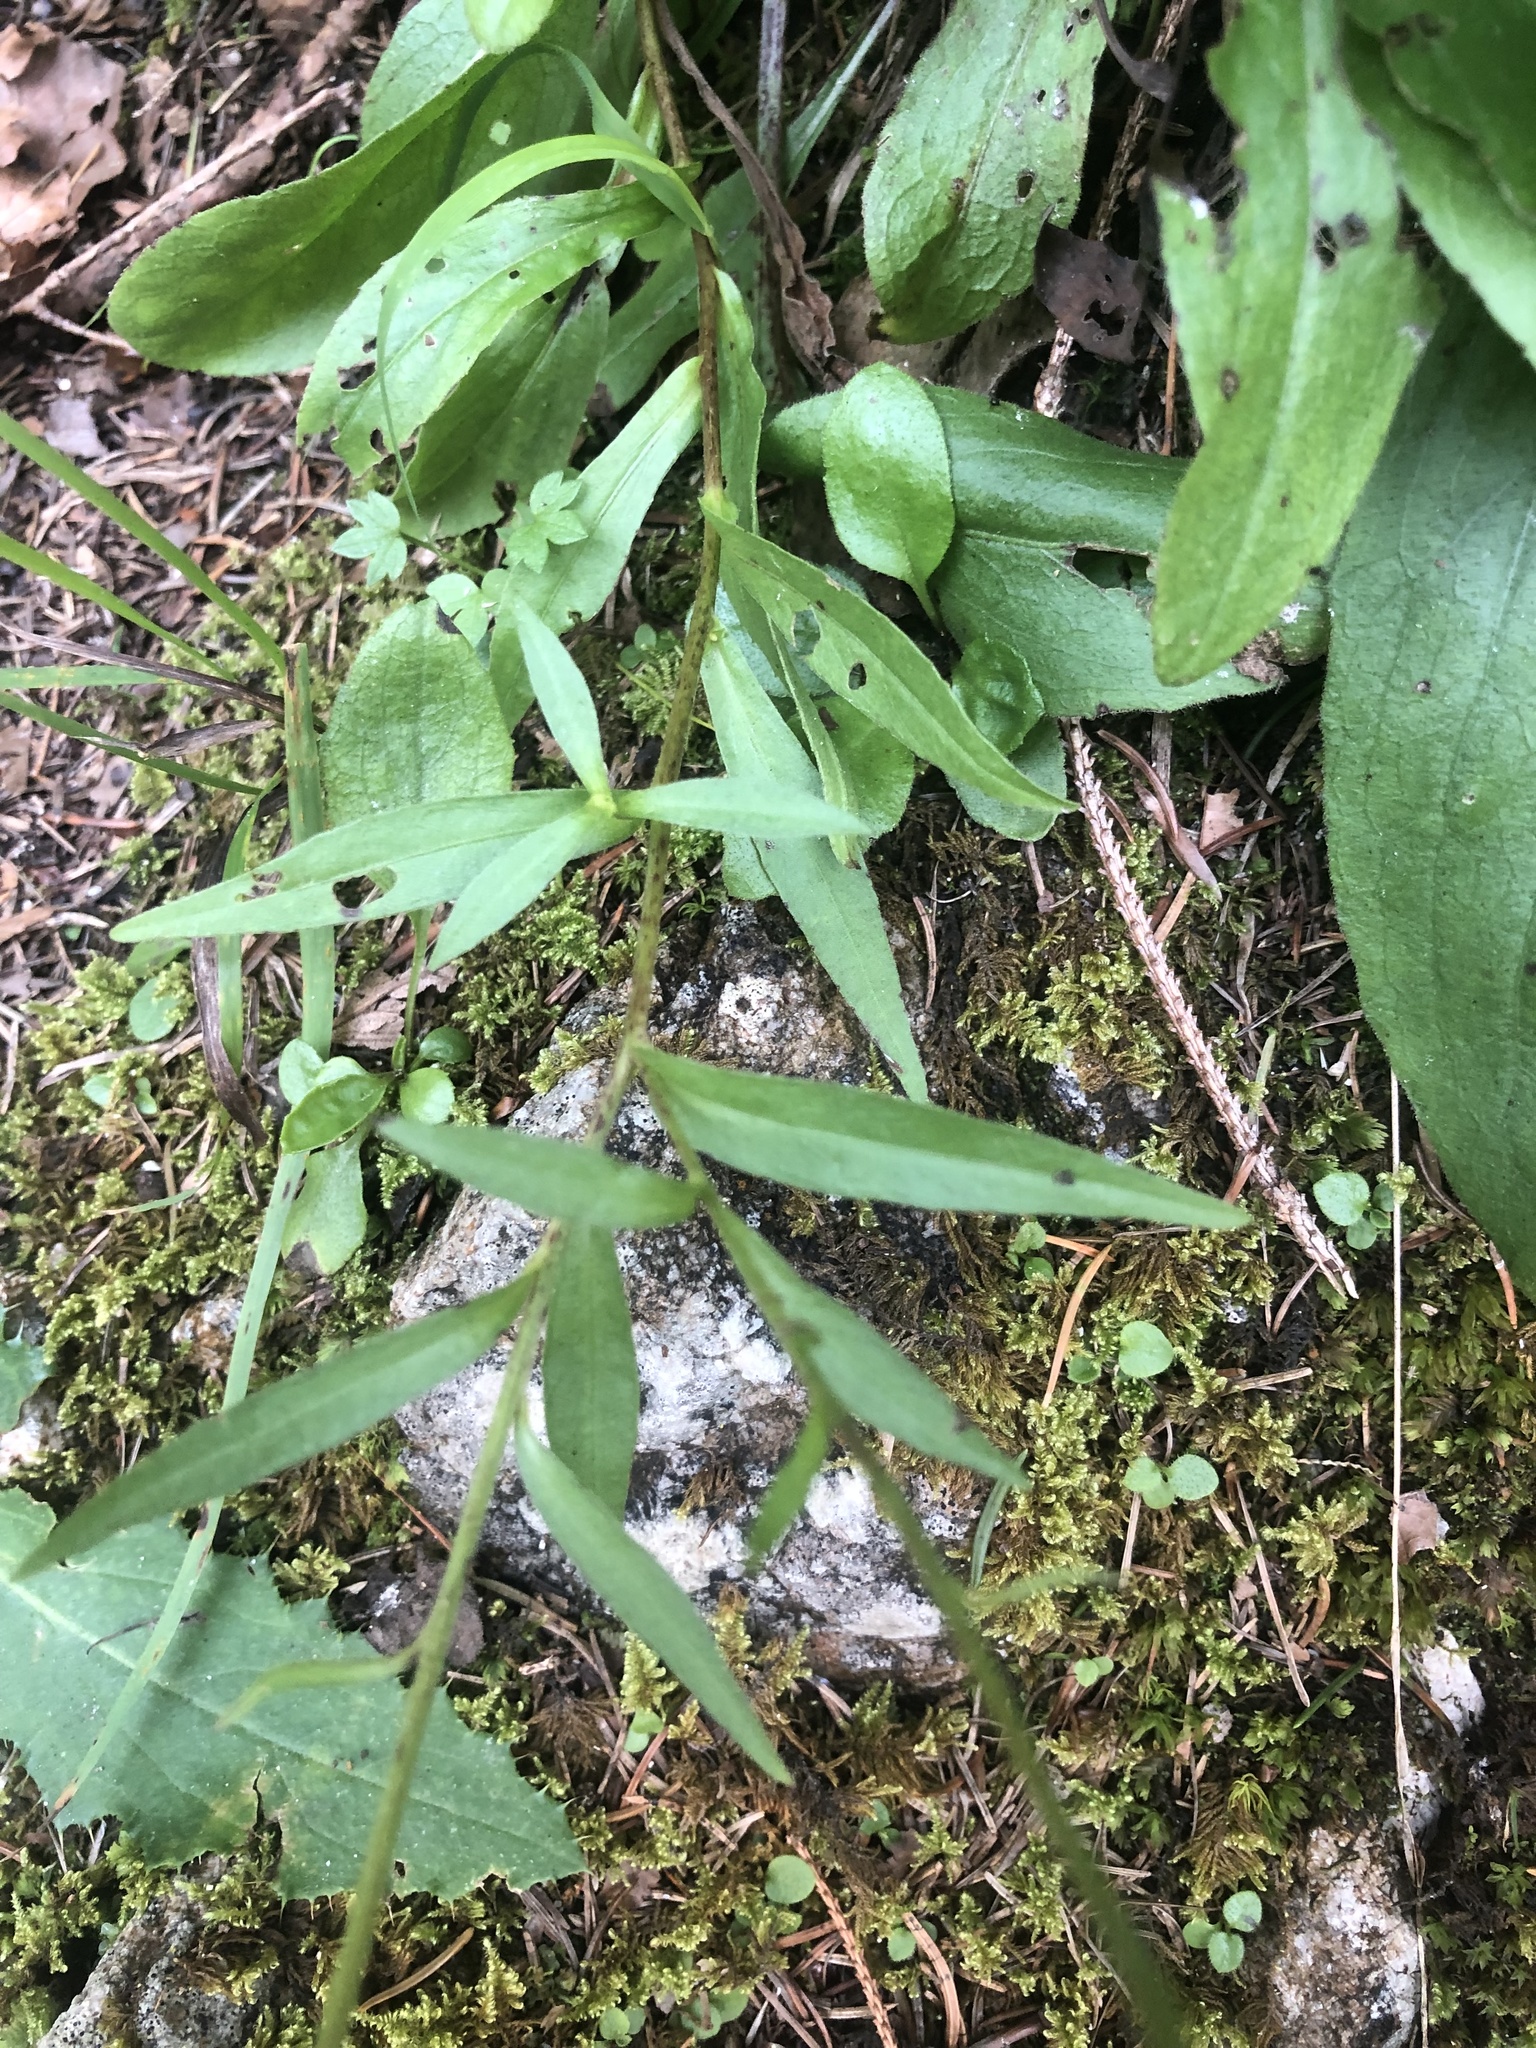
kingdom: Plantae
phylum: Tracheophyta
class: Magnoliopsida
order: Asterales
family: Asteraceae
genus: Buphthalmum
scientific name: Buphthalmum salicifolium
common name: Willow-leaved yellow-oxeye
